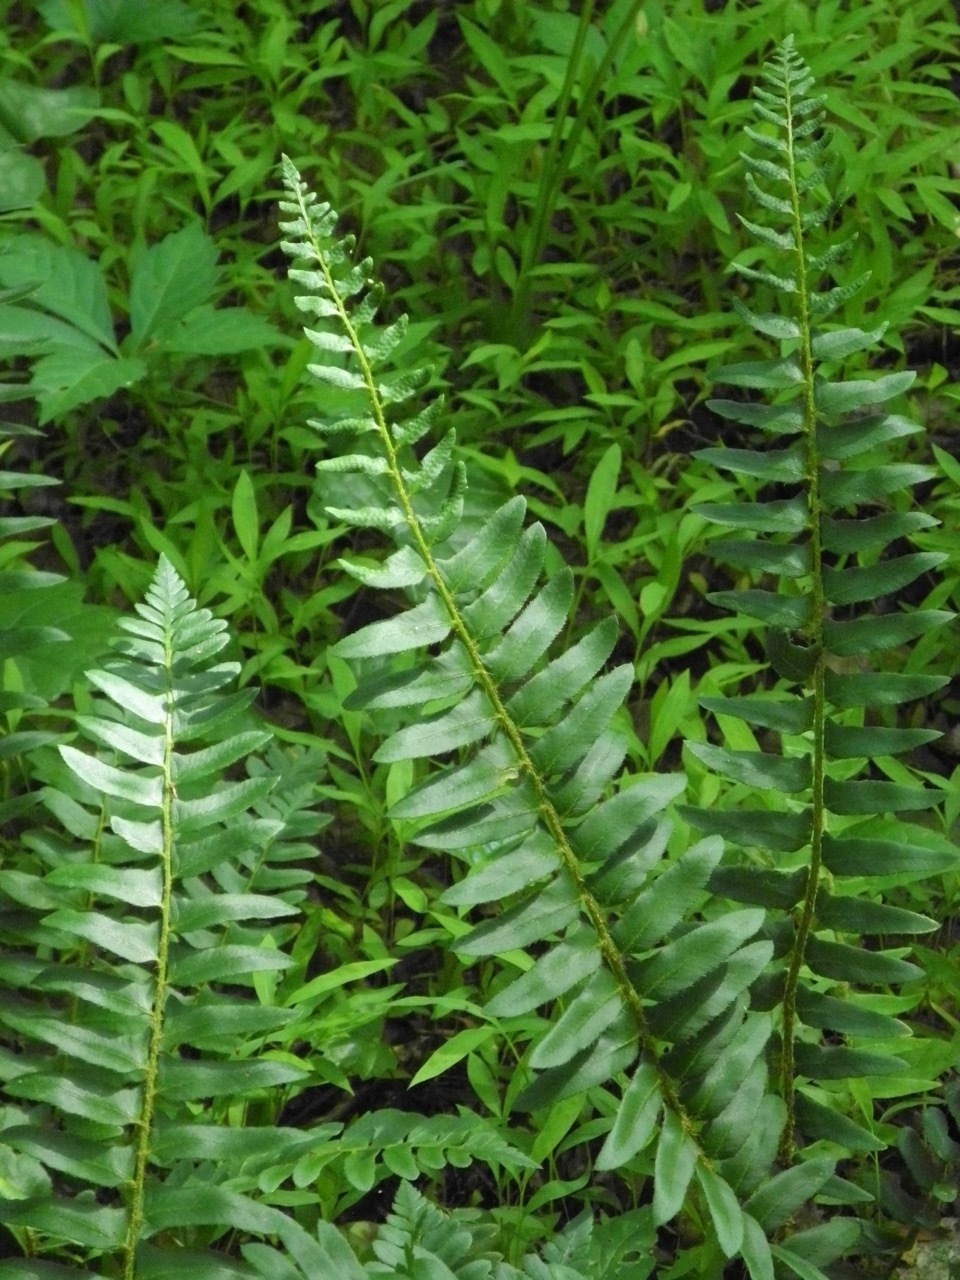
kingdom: Plantae
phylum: Tracheophyta
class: Polypodiopsida
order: Polypodiales
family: Dryopteridaceae
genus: Polystichum
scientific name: Polystichum acrostichoides
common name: Christmas fern
